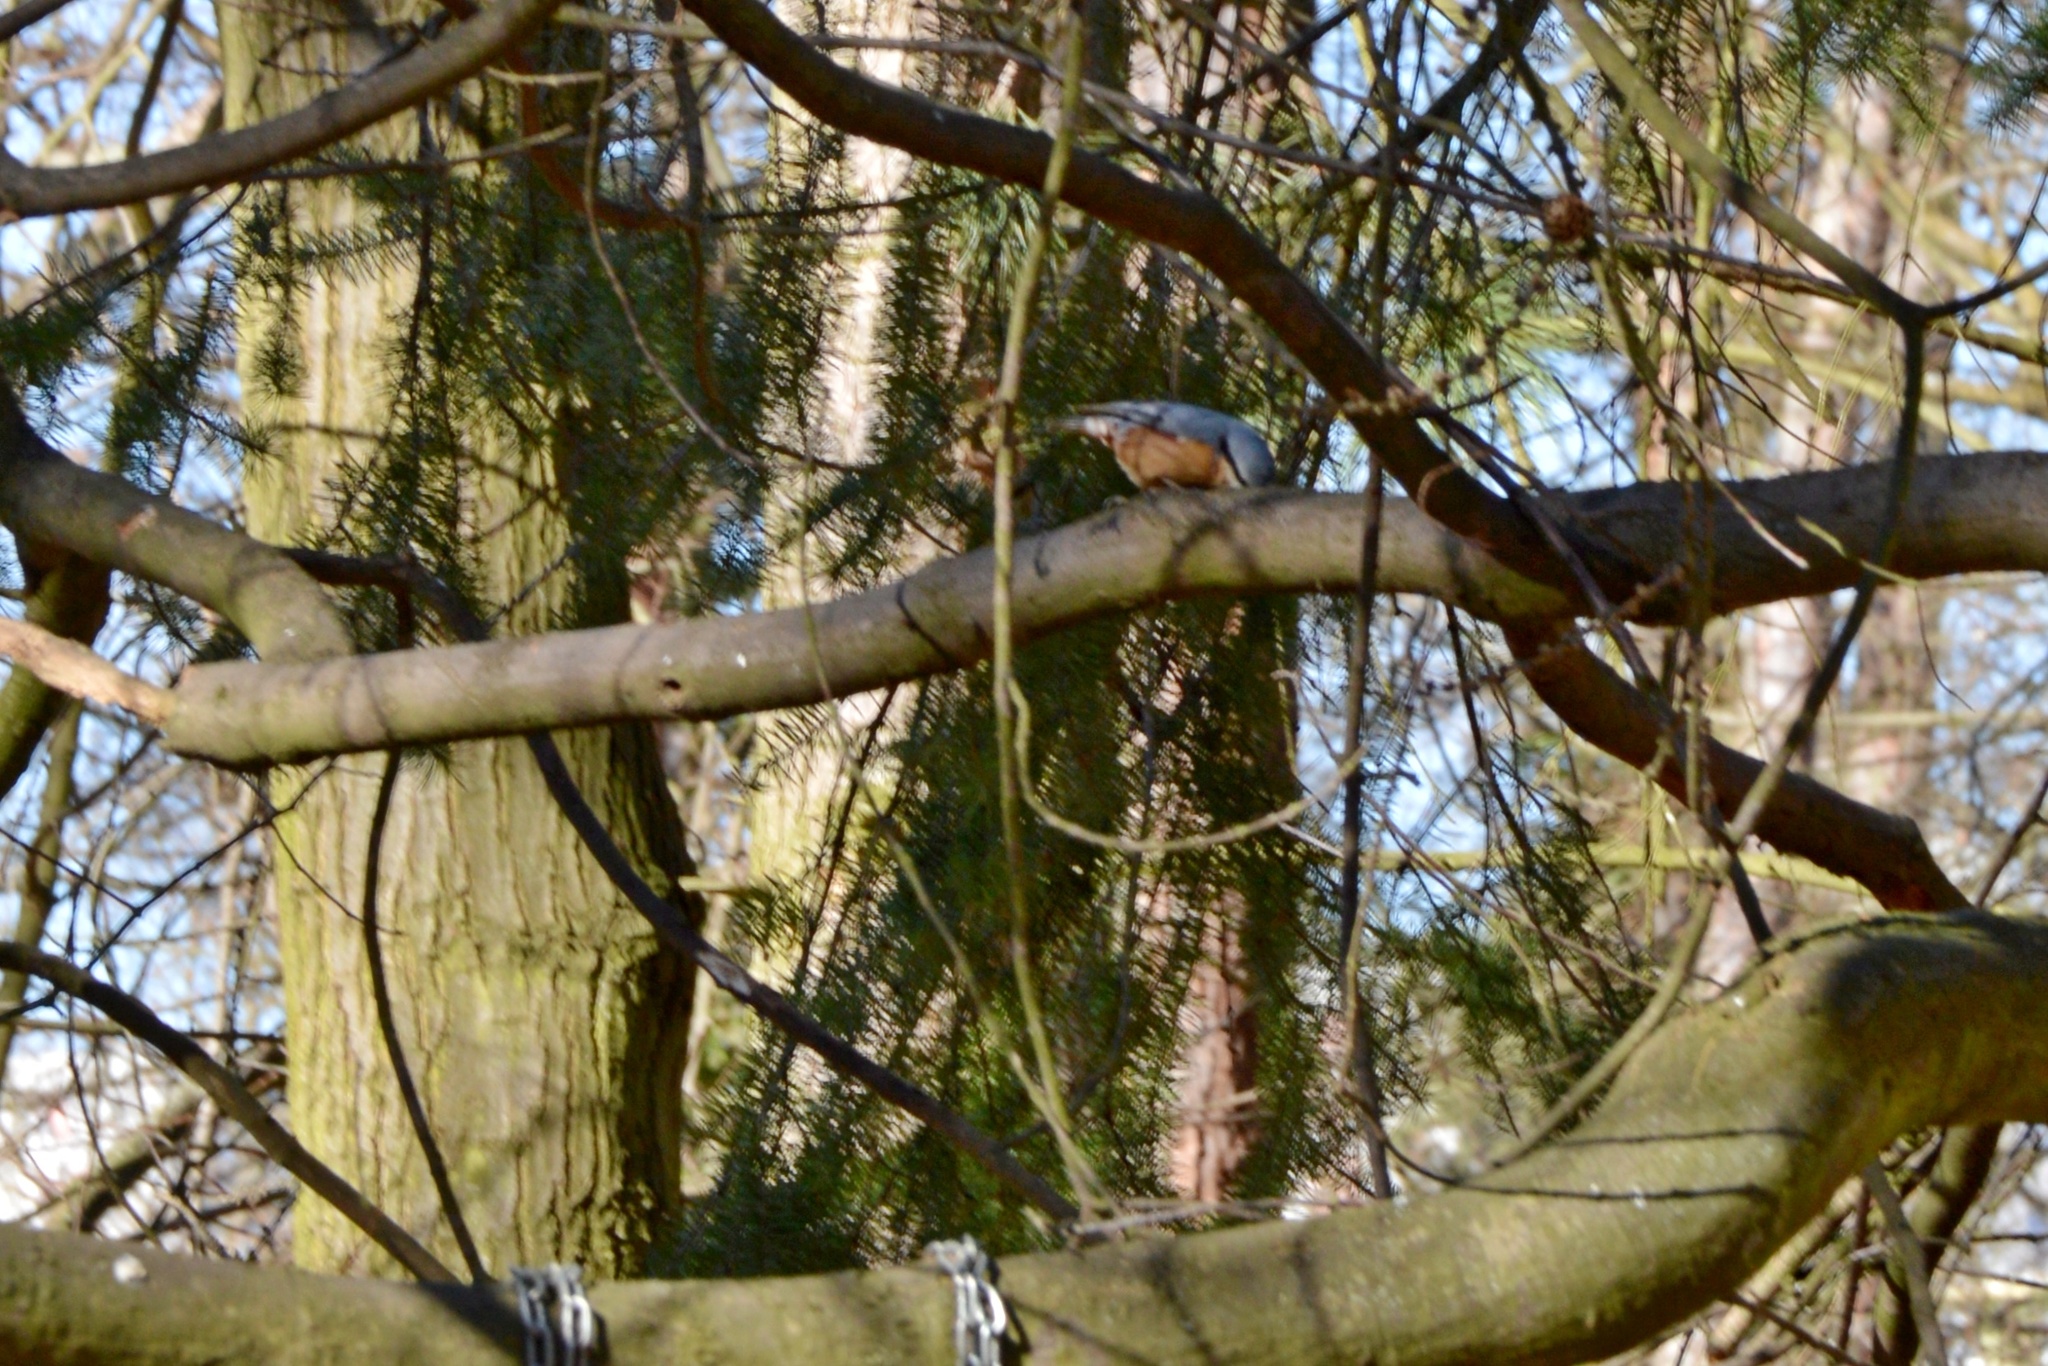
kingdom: Animalia
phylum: Chordata
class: Aves
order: Passeriformes
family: Sittidae
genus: Sitta
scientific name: Sitta europaea
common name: Eurasian nuthatch
